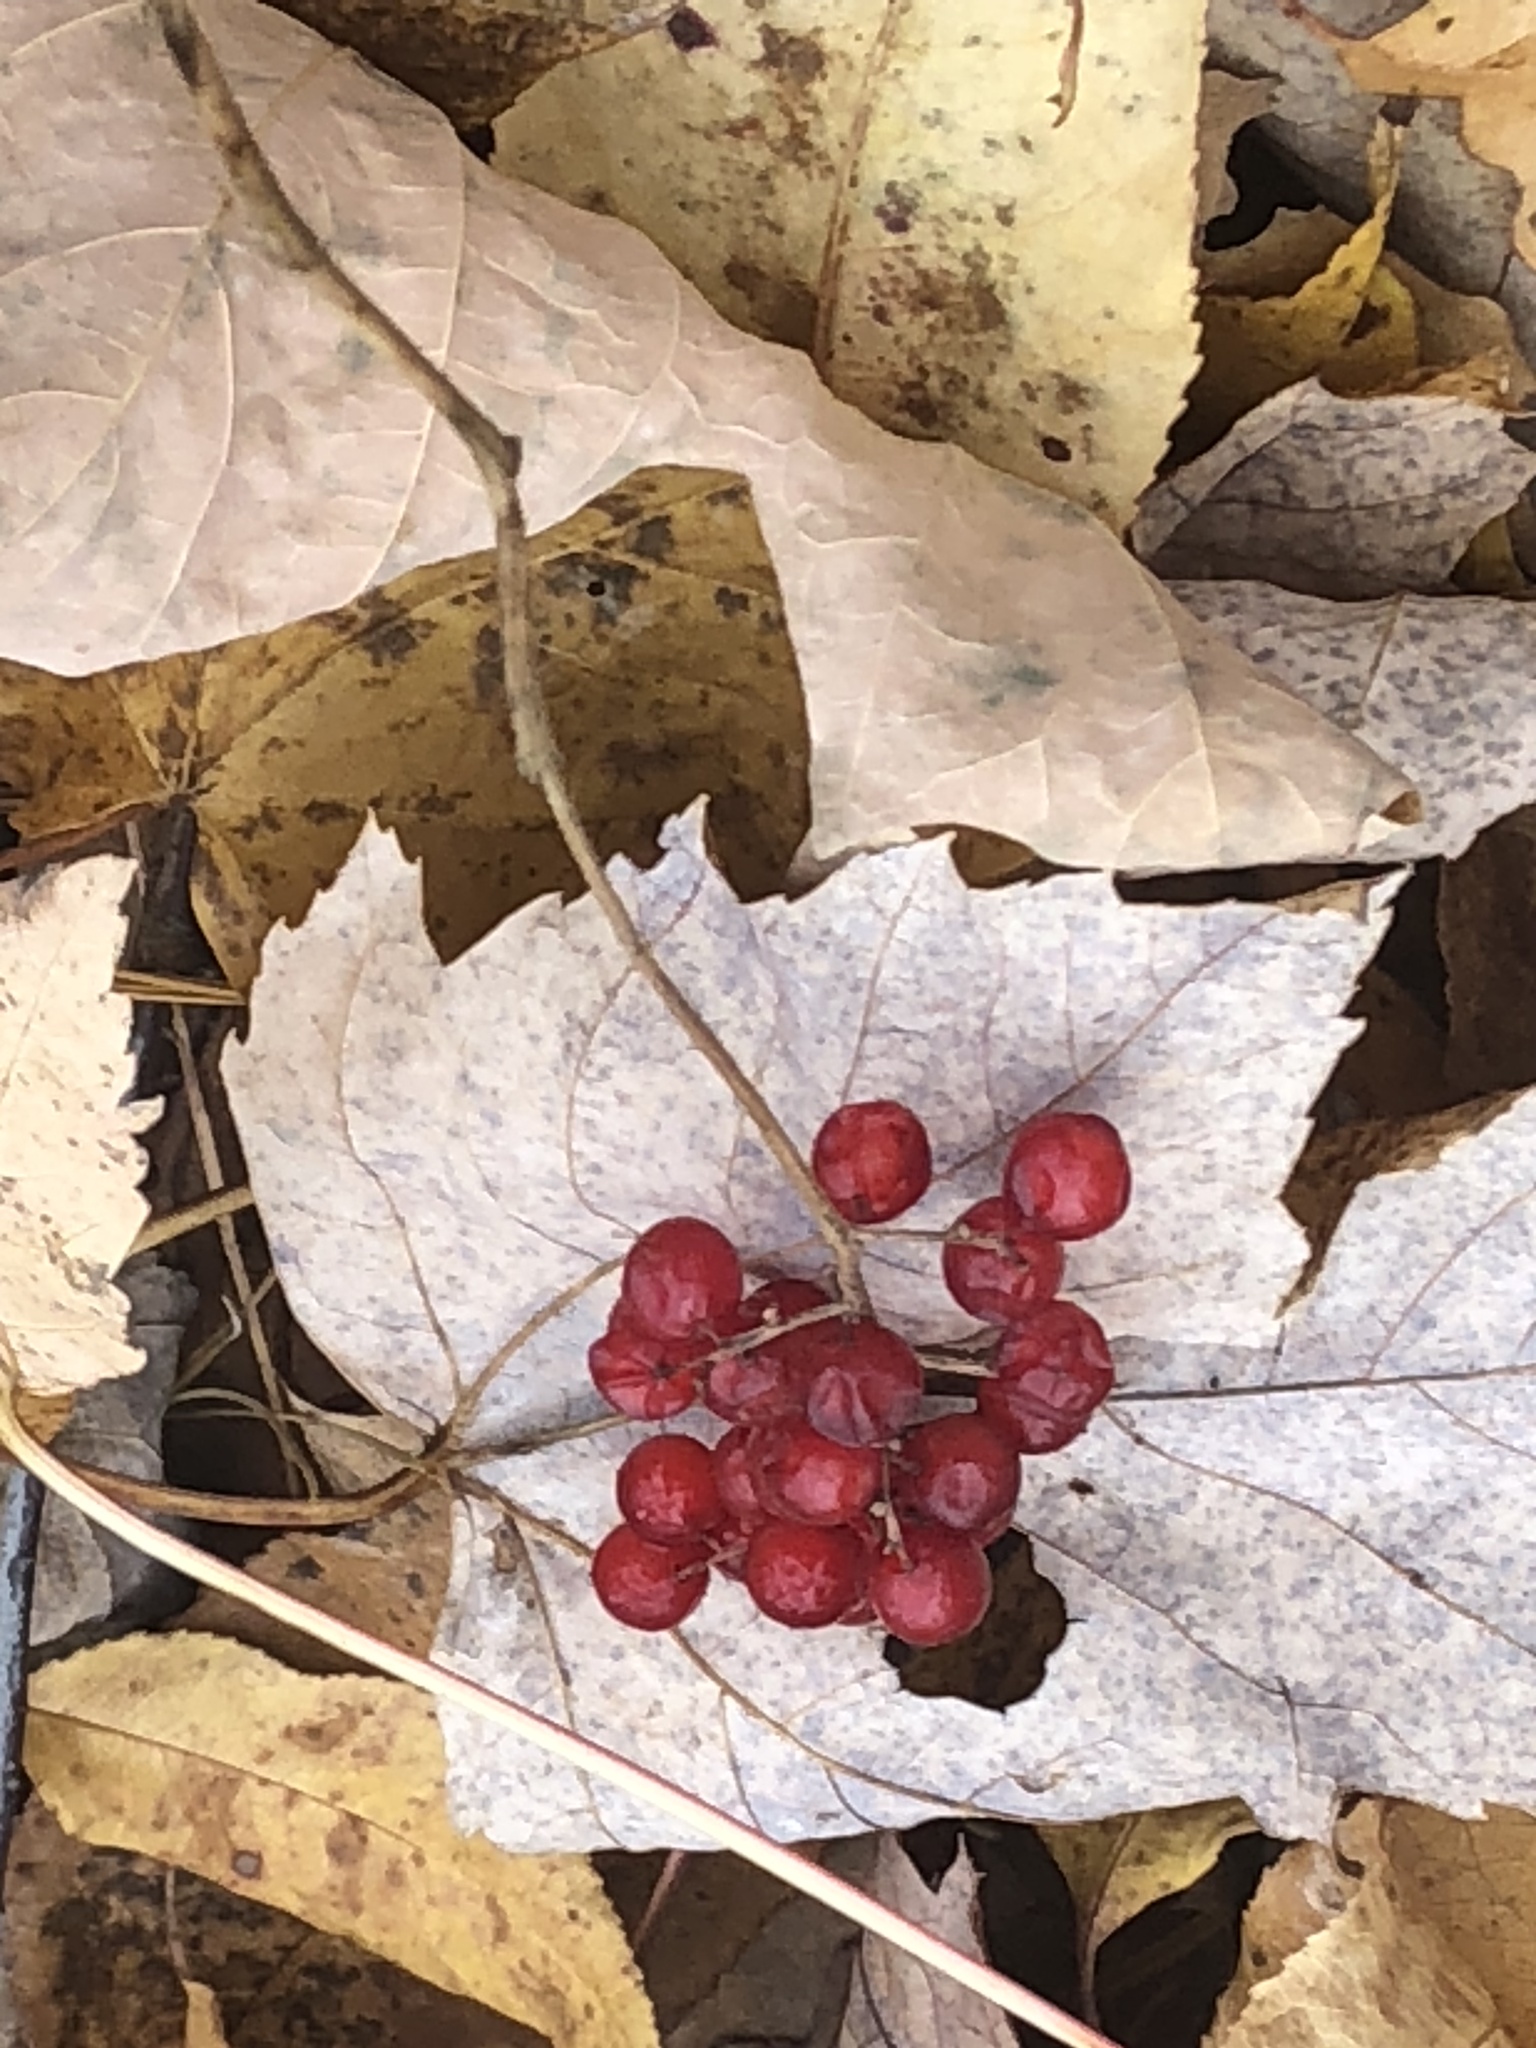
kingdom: Plantae
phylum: Tracheophyta
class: Liliopsida
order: Asparagales
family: Asparagaceae
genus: Maianthemum
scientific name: Maianthemum racemosum
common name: False spikenard
